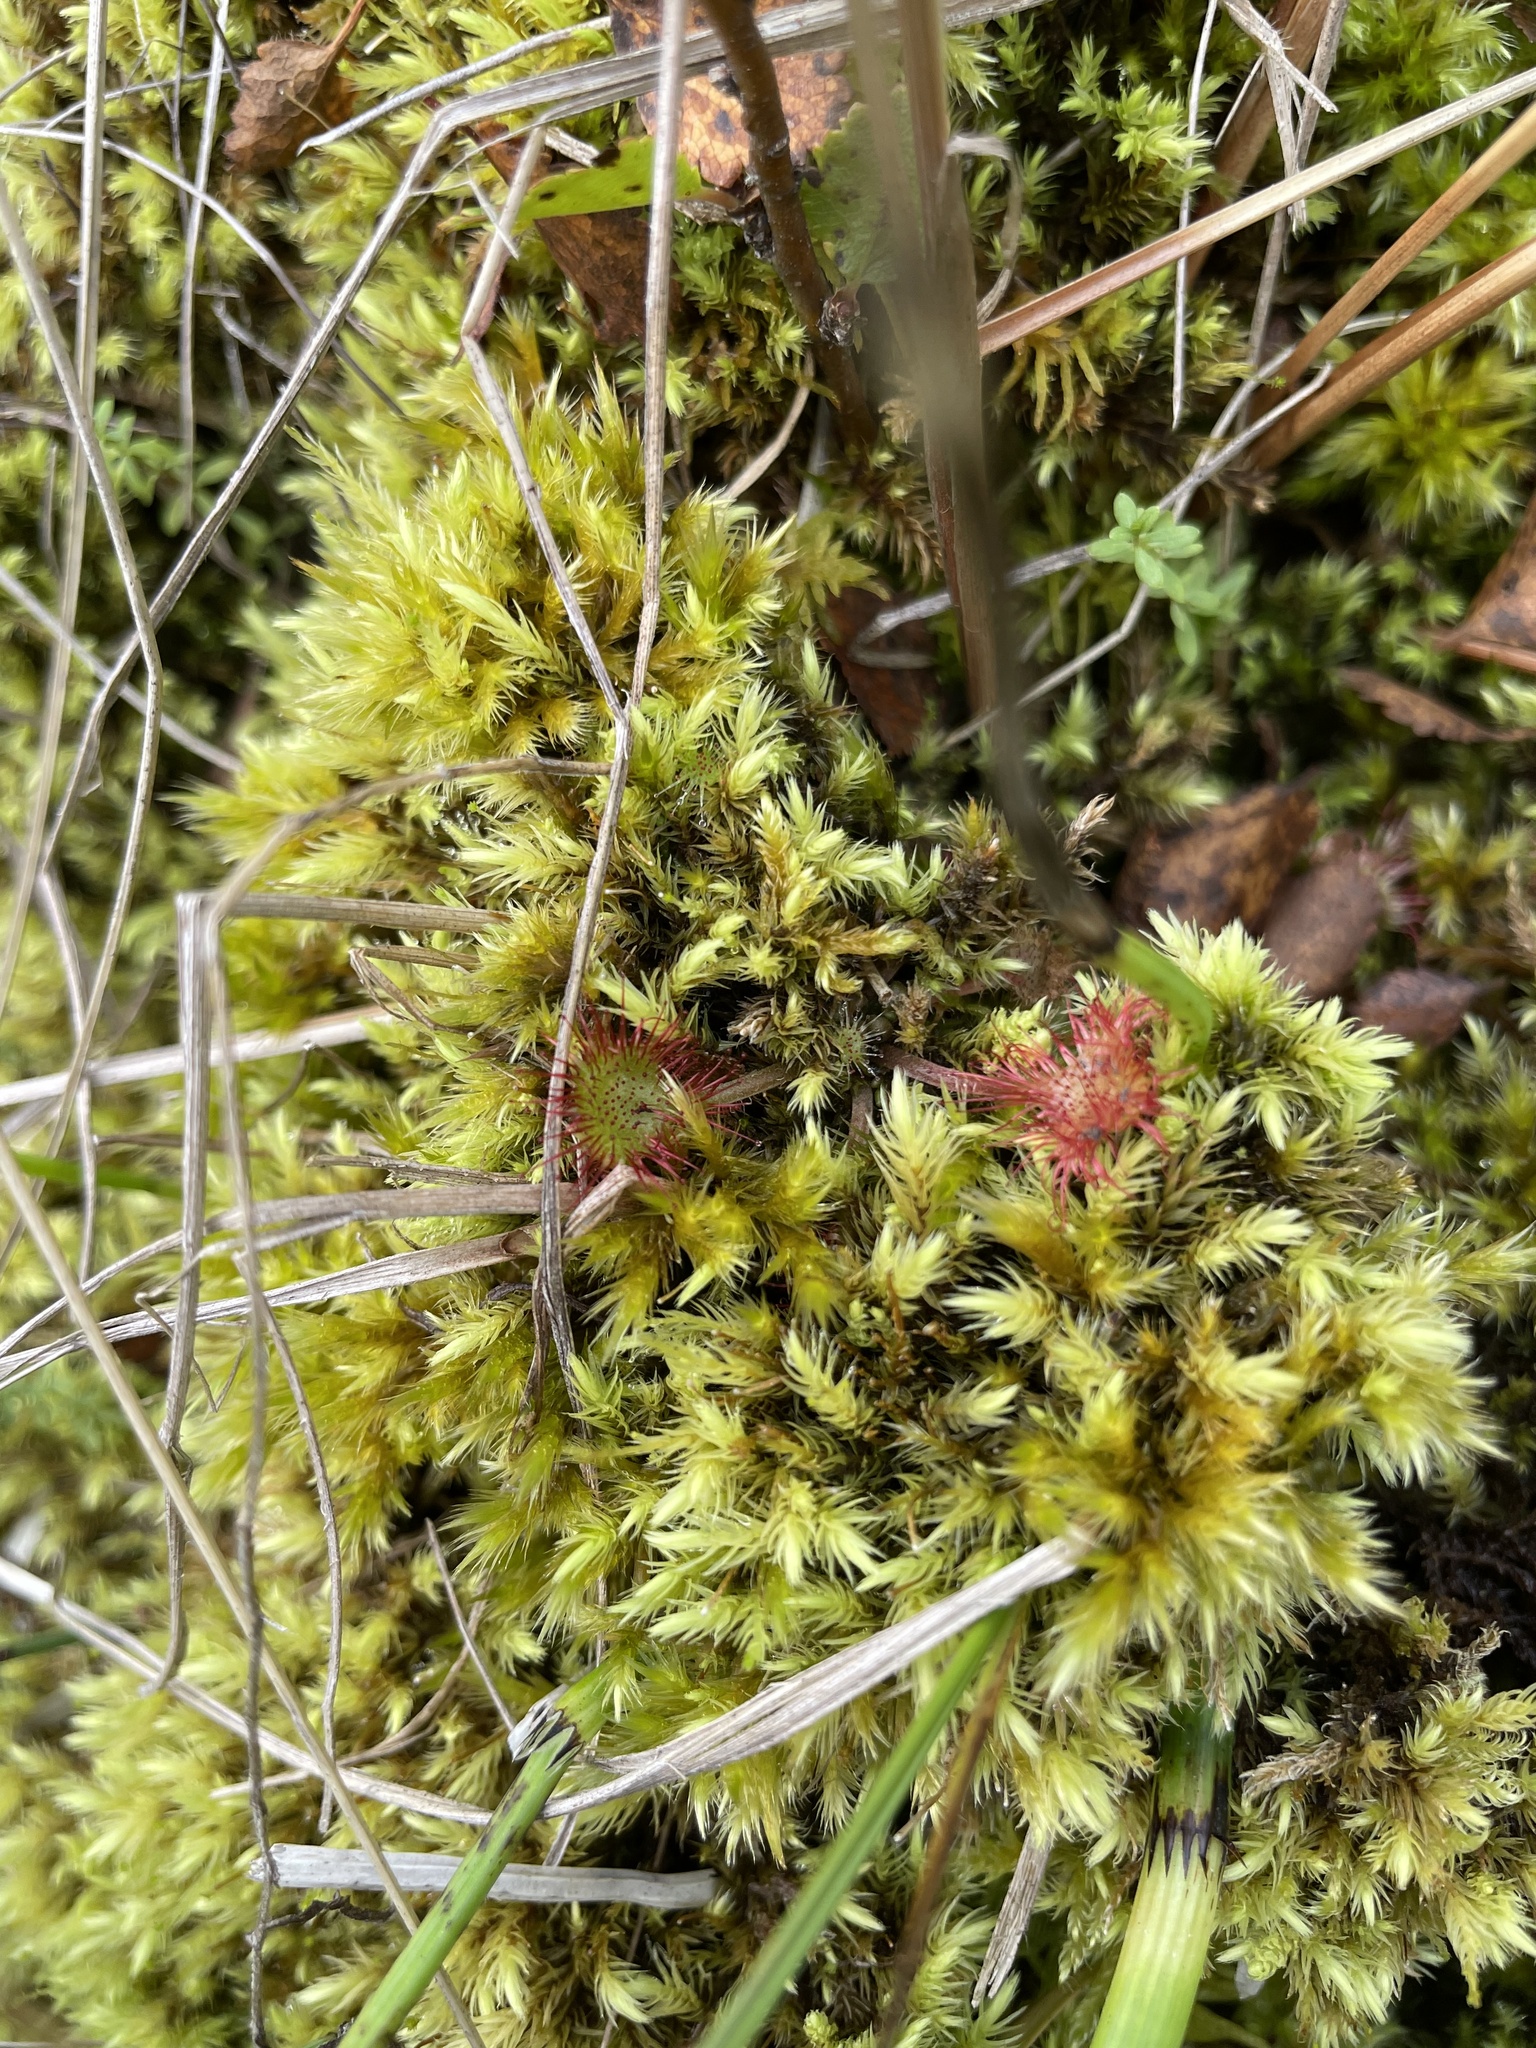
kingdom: Plantae
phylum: Tracheophyta
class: Magnoliopsida
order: Caryophyllales
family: Droseraceae
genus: Drosera
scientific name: Drosera rotundifolia
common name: Round-leaved sundew
